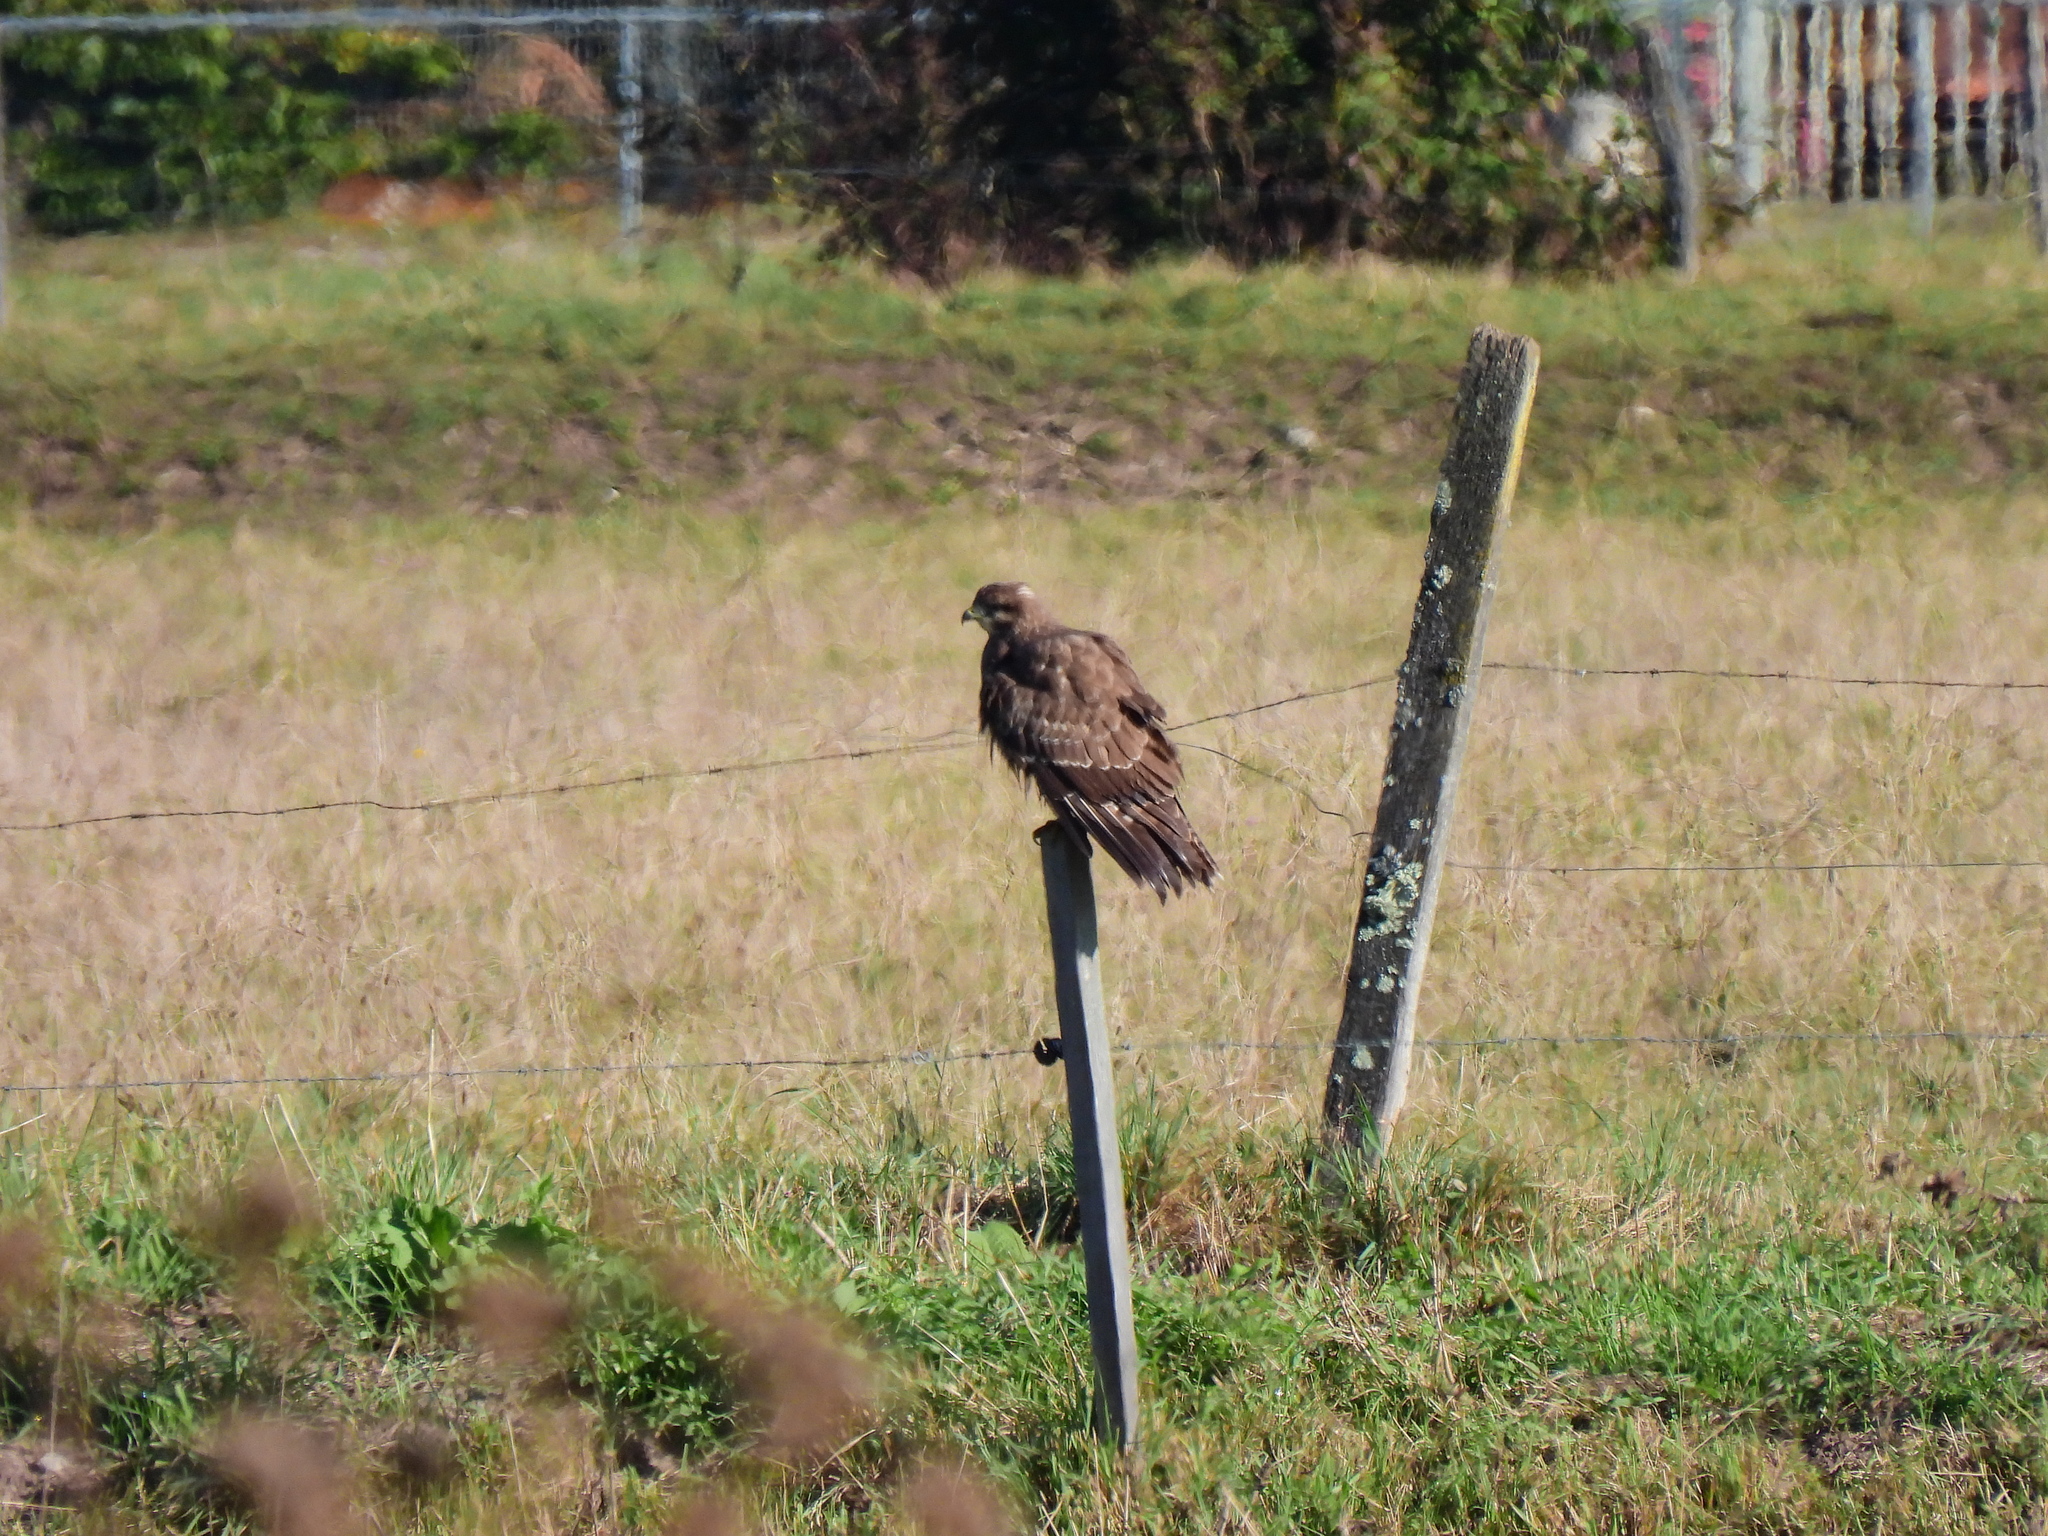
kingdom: Animalia
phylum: Chordata
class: Aves
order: Accipitriformes
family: Accipitridae
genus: Buteo
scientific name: Buteo buteo
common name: Common buzzard
